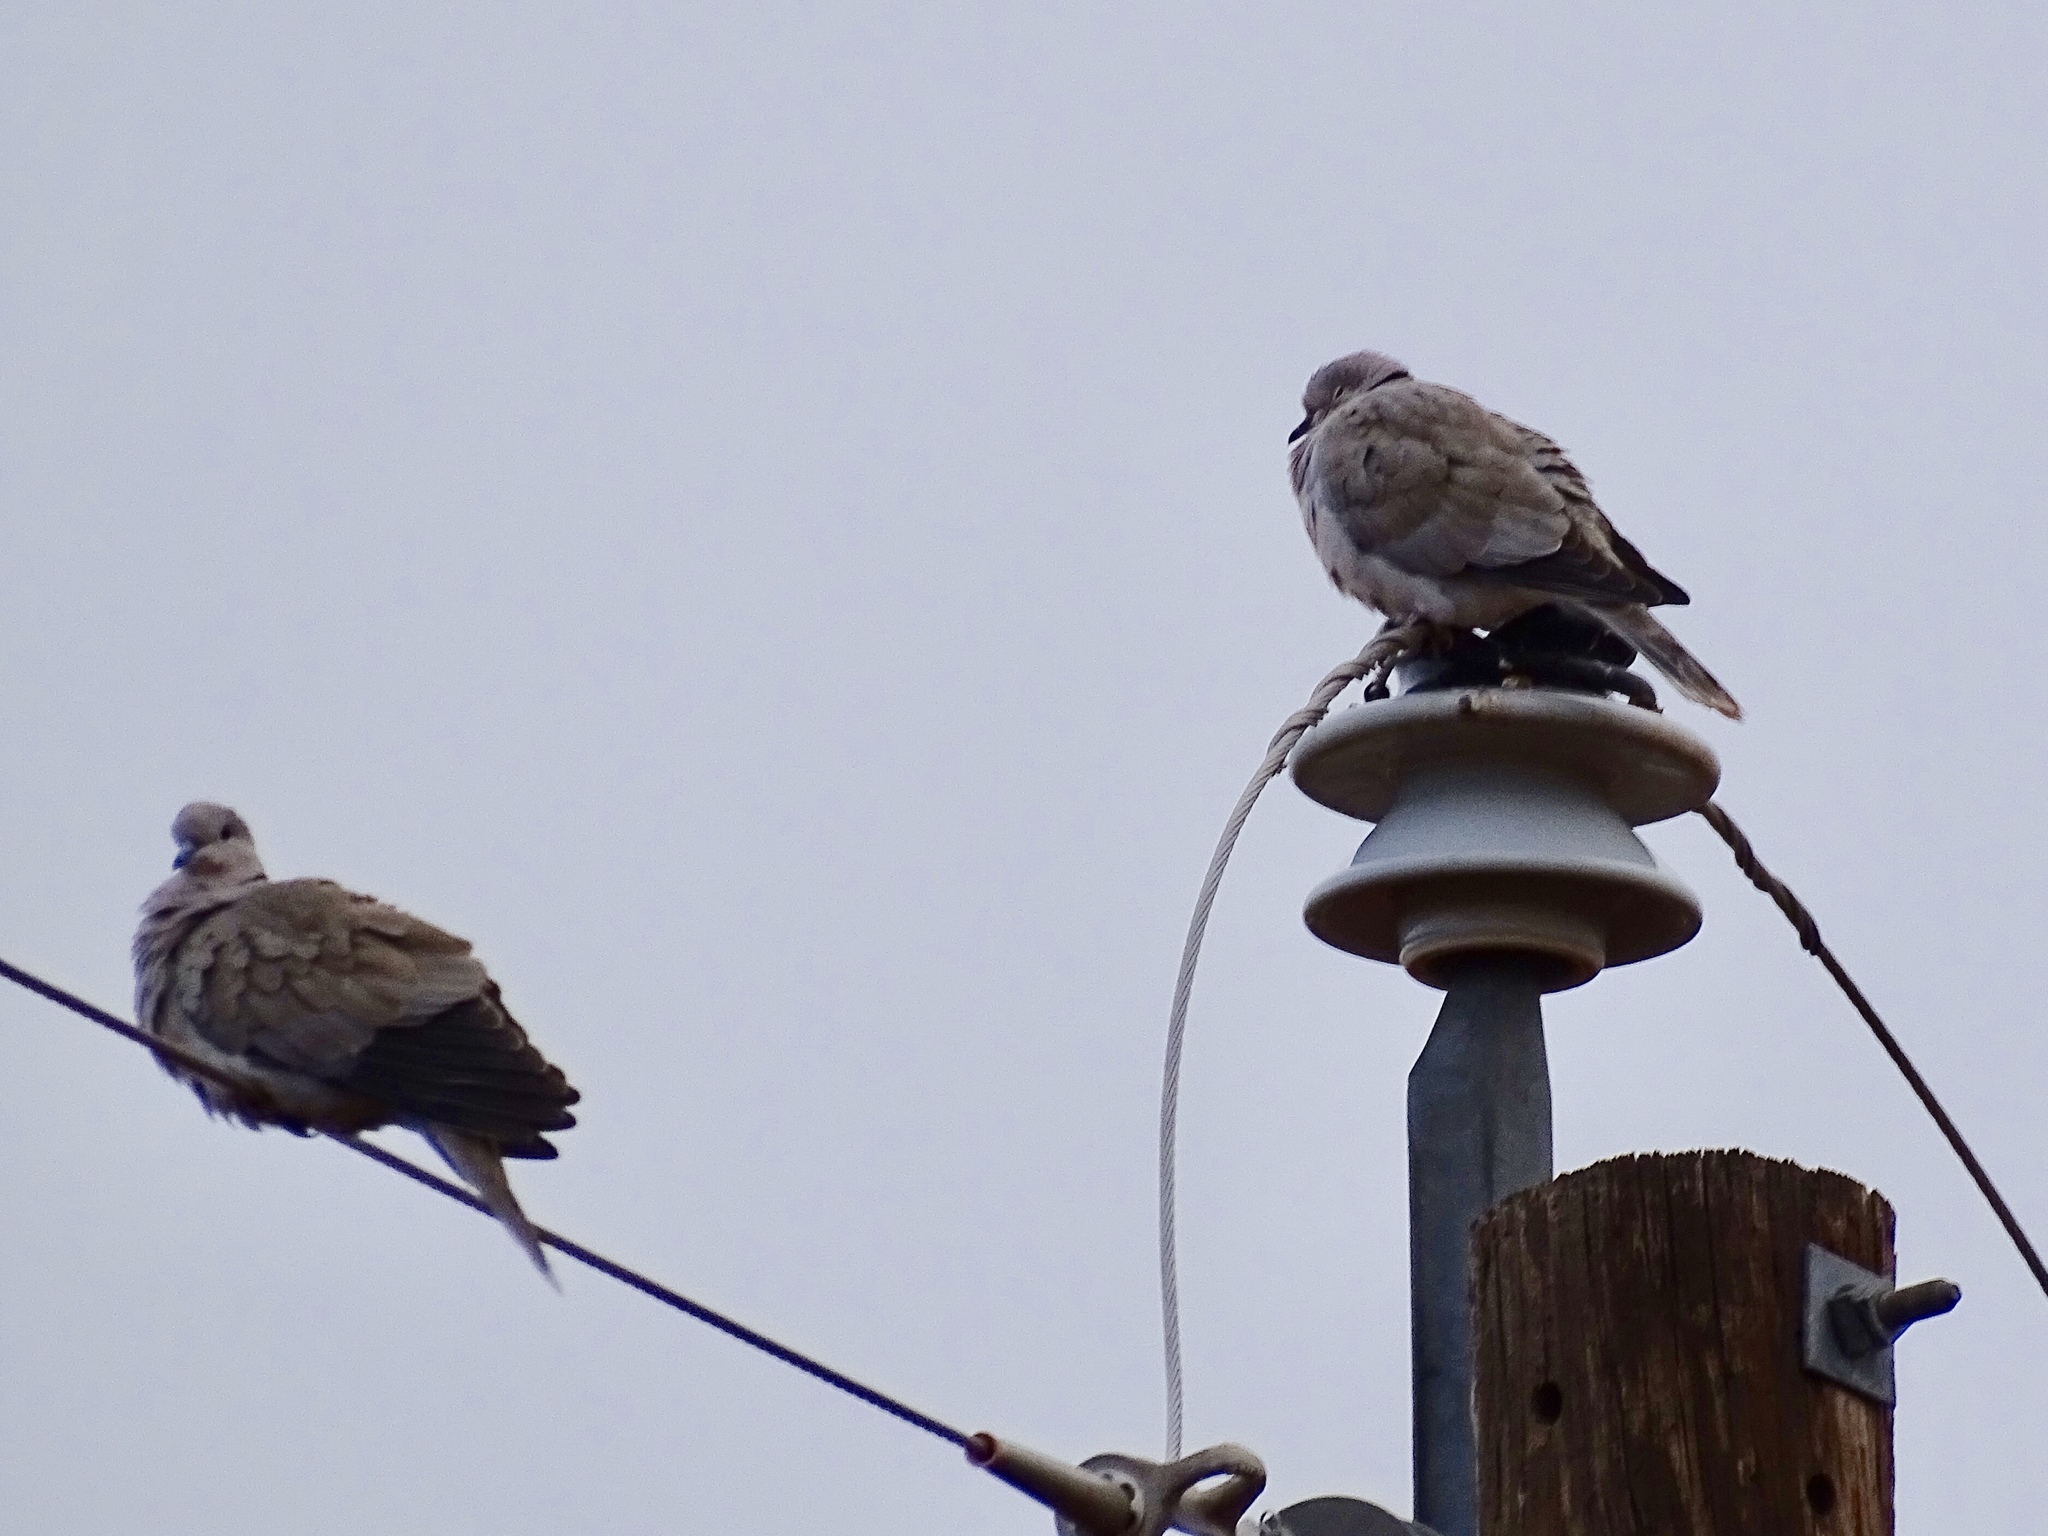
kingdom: Animalia
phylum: Chordata
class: Aves
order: Columbiformes
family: Columbidae
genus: Streptopelia
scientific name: Streptopelia decaocto
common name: Eurasian collared dove
